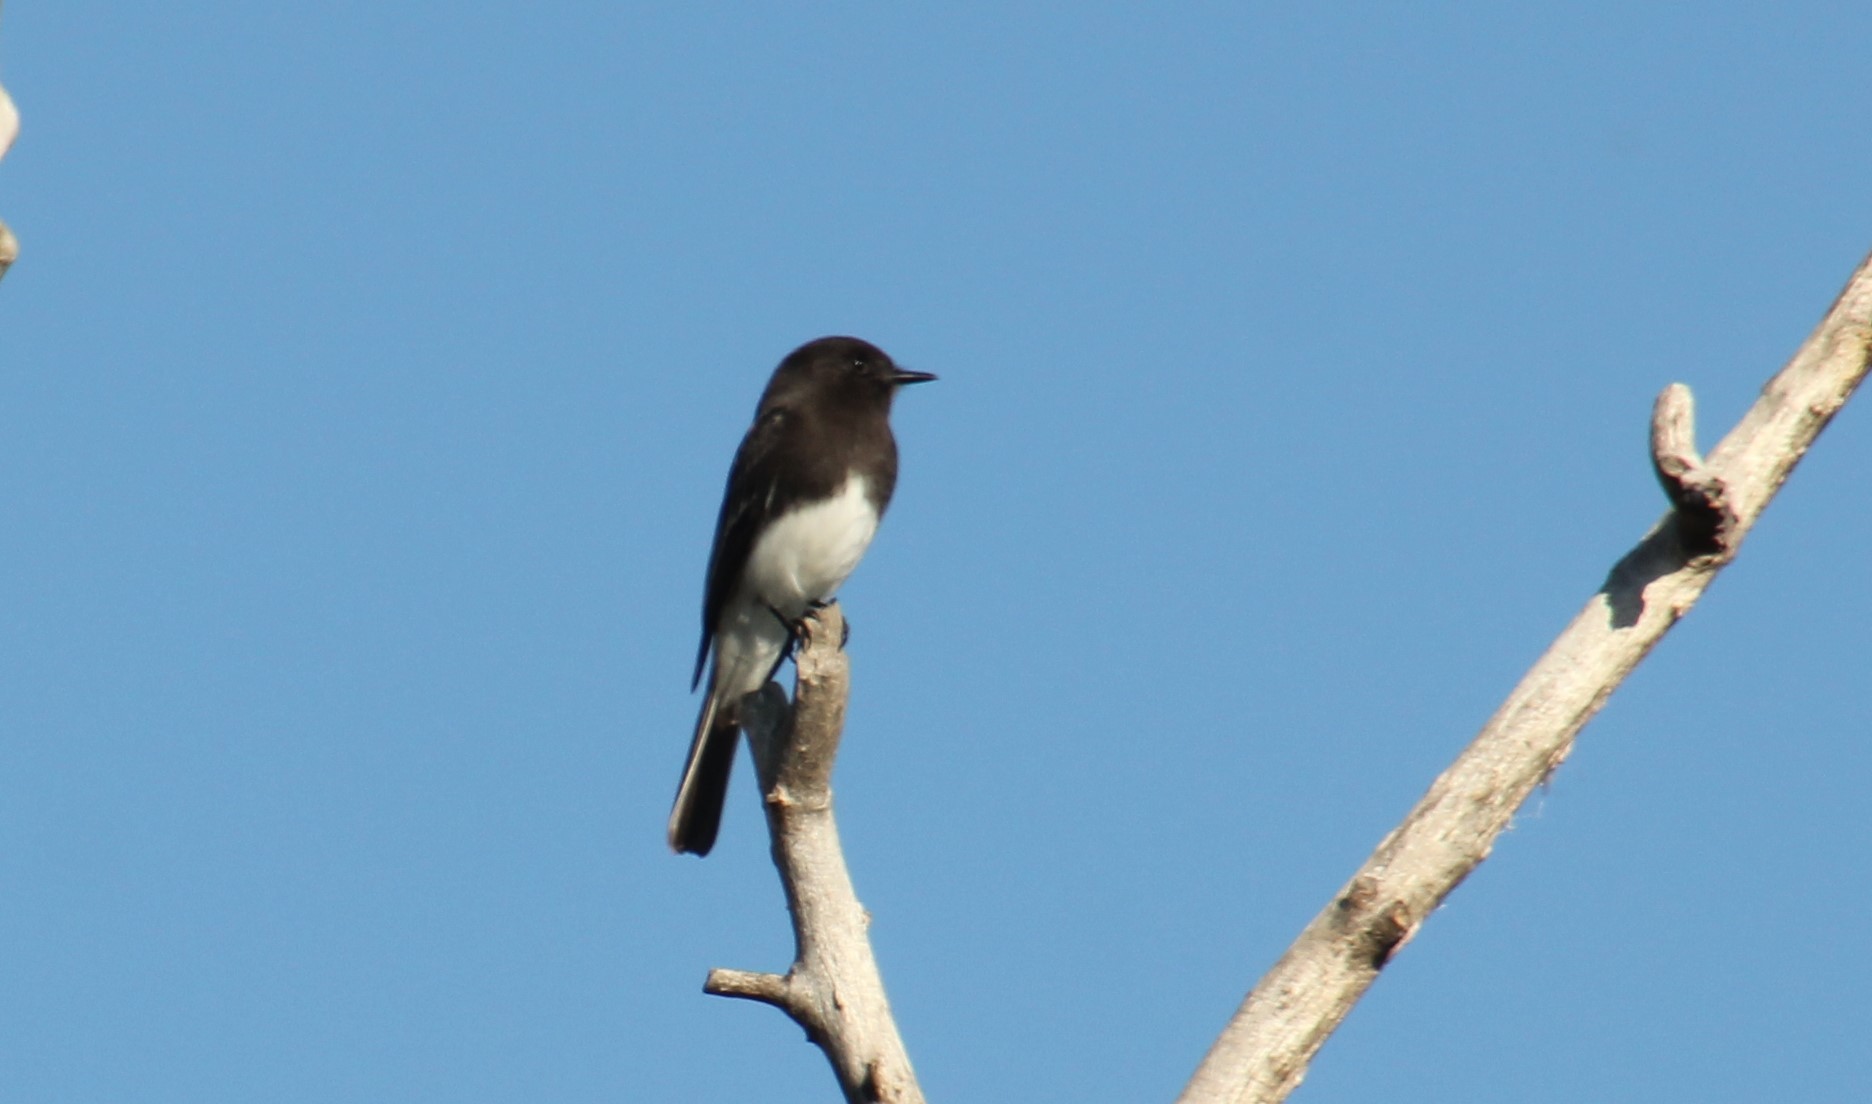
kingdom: Animalia
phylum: Chordata
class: Aves
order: Passeriformes
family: Tyrannidae
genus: Sayornis
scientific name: Sayornis nigricans
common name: Black phoebe
